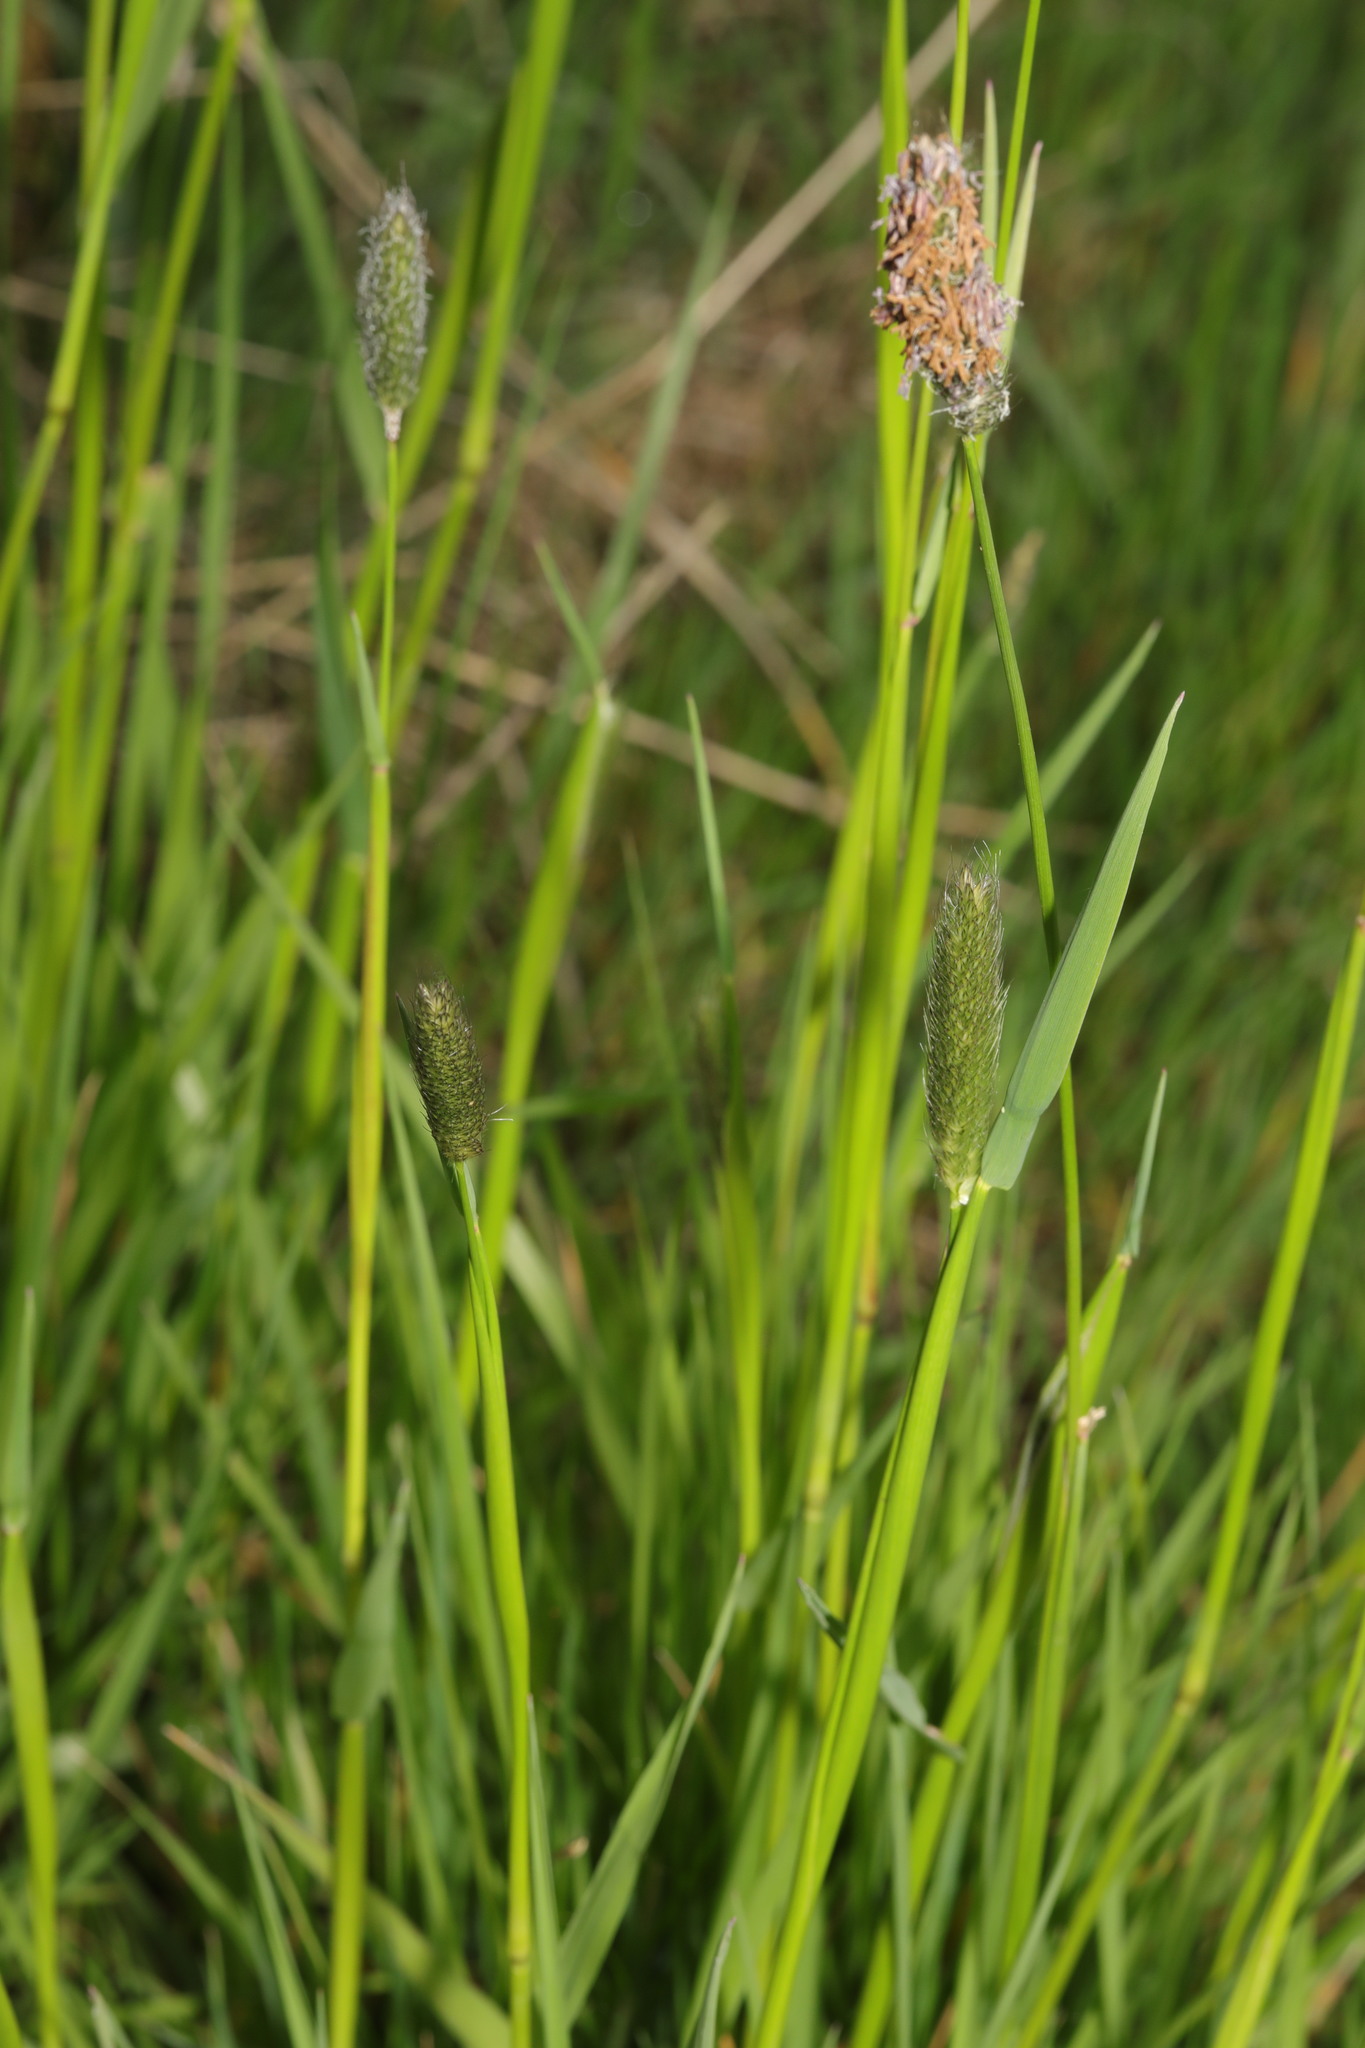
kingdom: Plantae
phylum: Tracheophyta
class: Liliopsida
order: Poales
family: Poaceae
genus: Alopecurus
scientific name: Alopecurus pratensis
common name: Meadow foxtail
